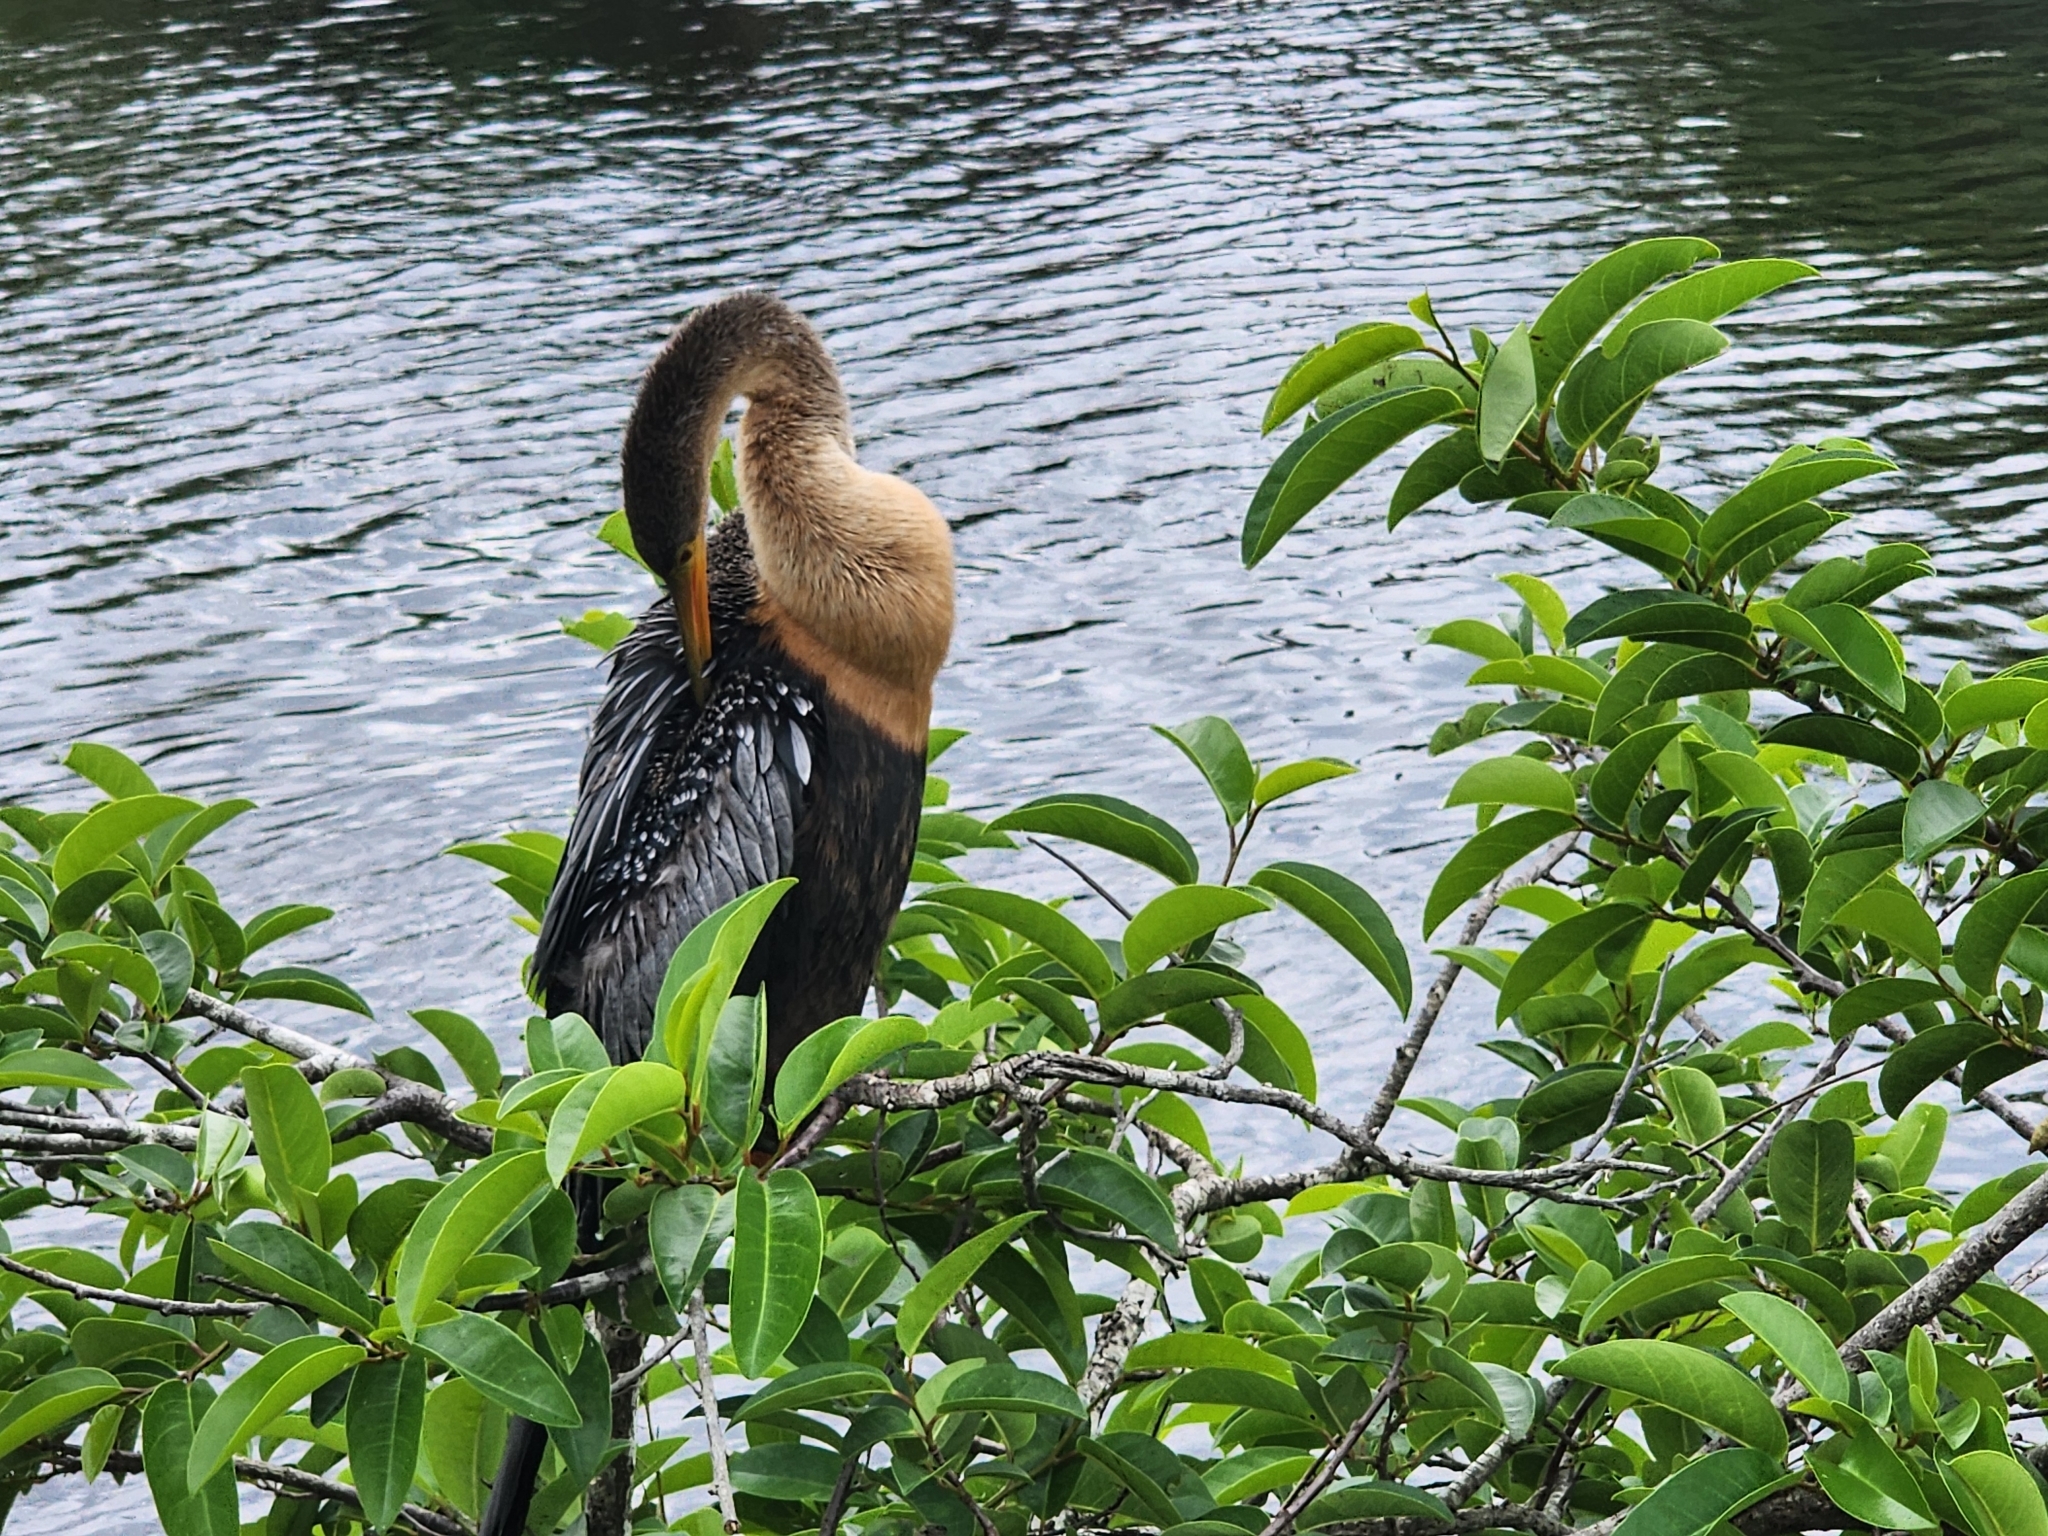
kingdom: Animalia
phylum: Chordata
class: Aves
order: Suliformes
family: Anhingidae
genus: Anhinga
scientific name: Anhinga anhinga
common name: Anhinga
